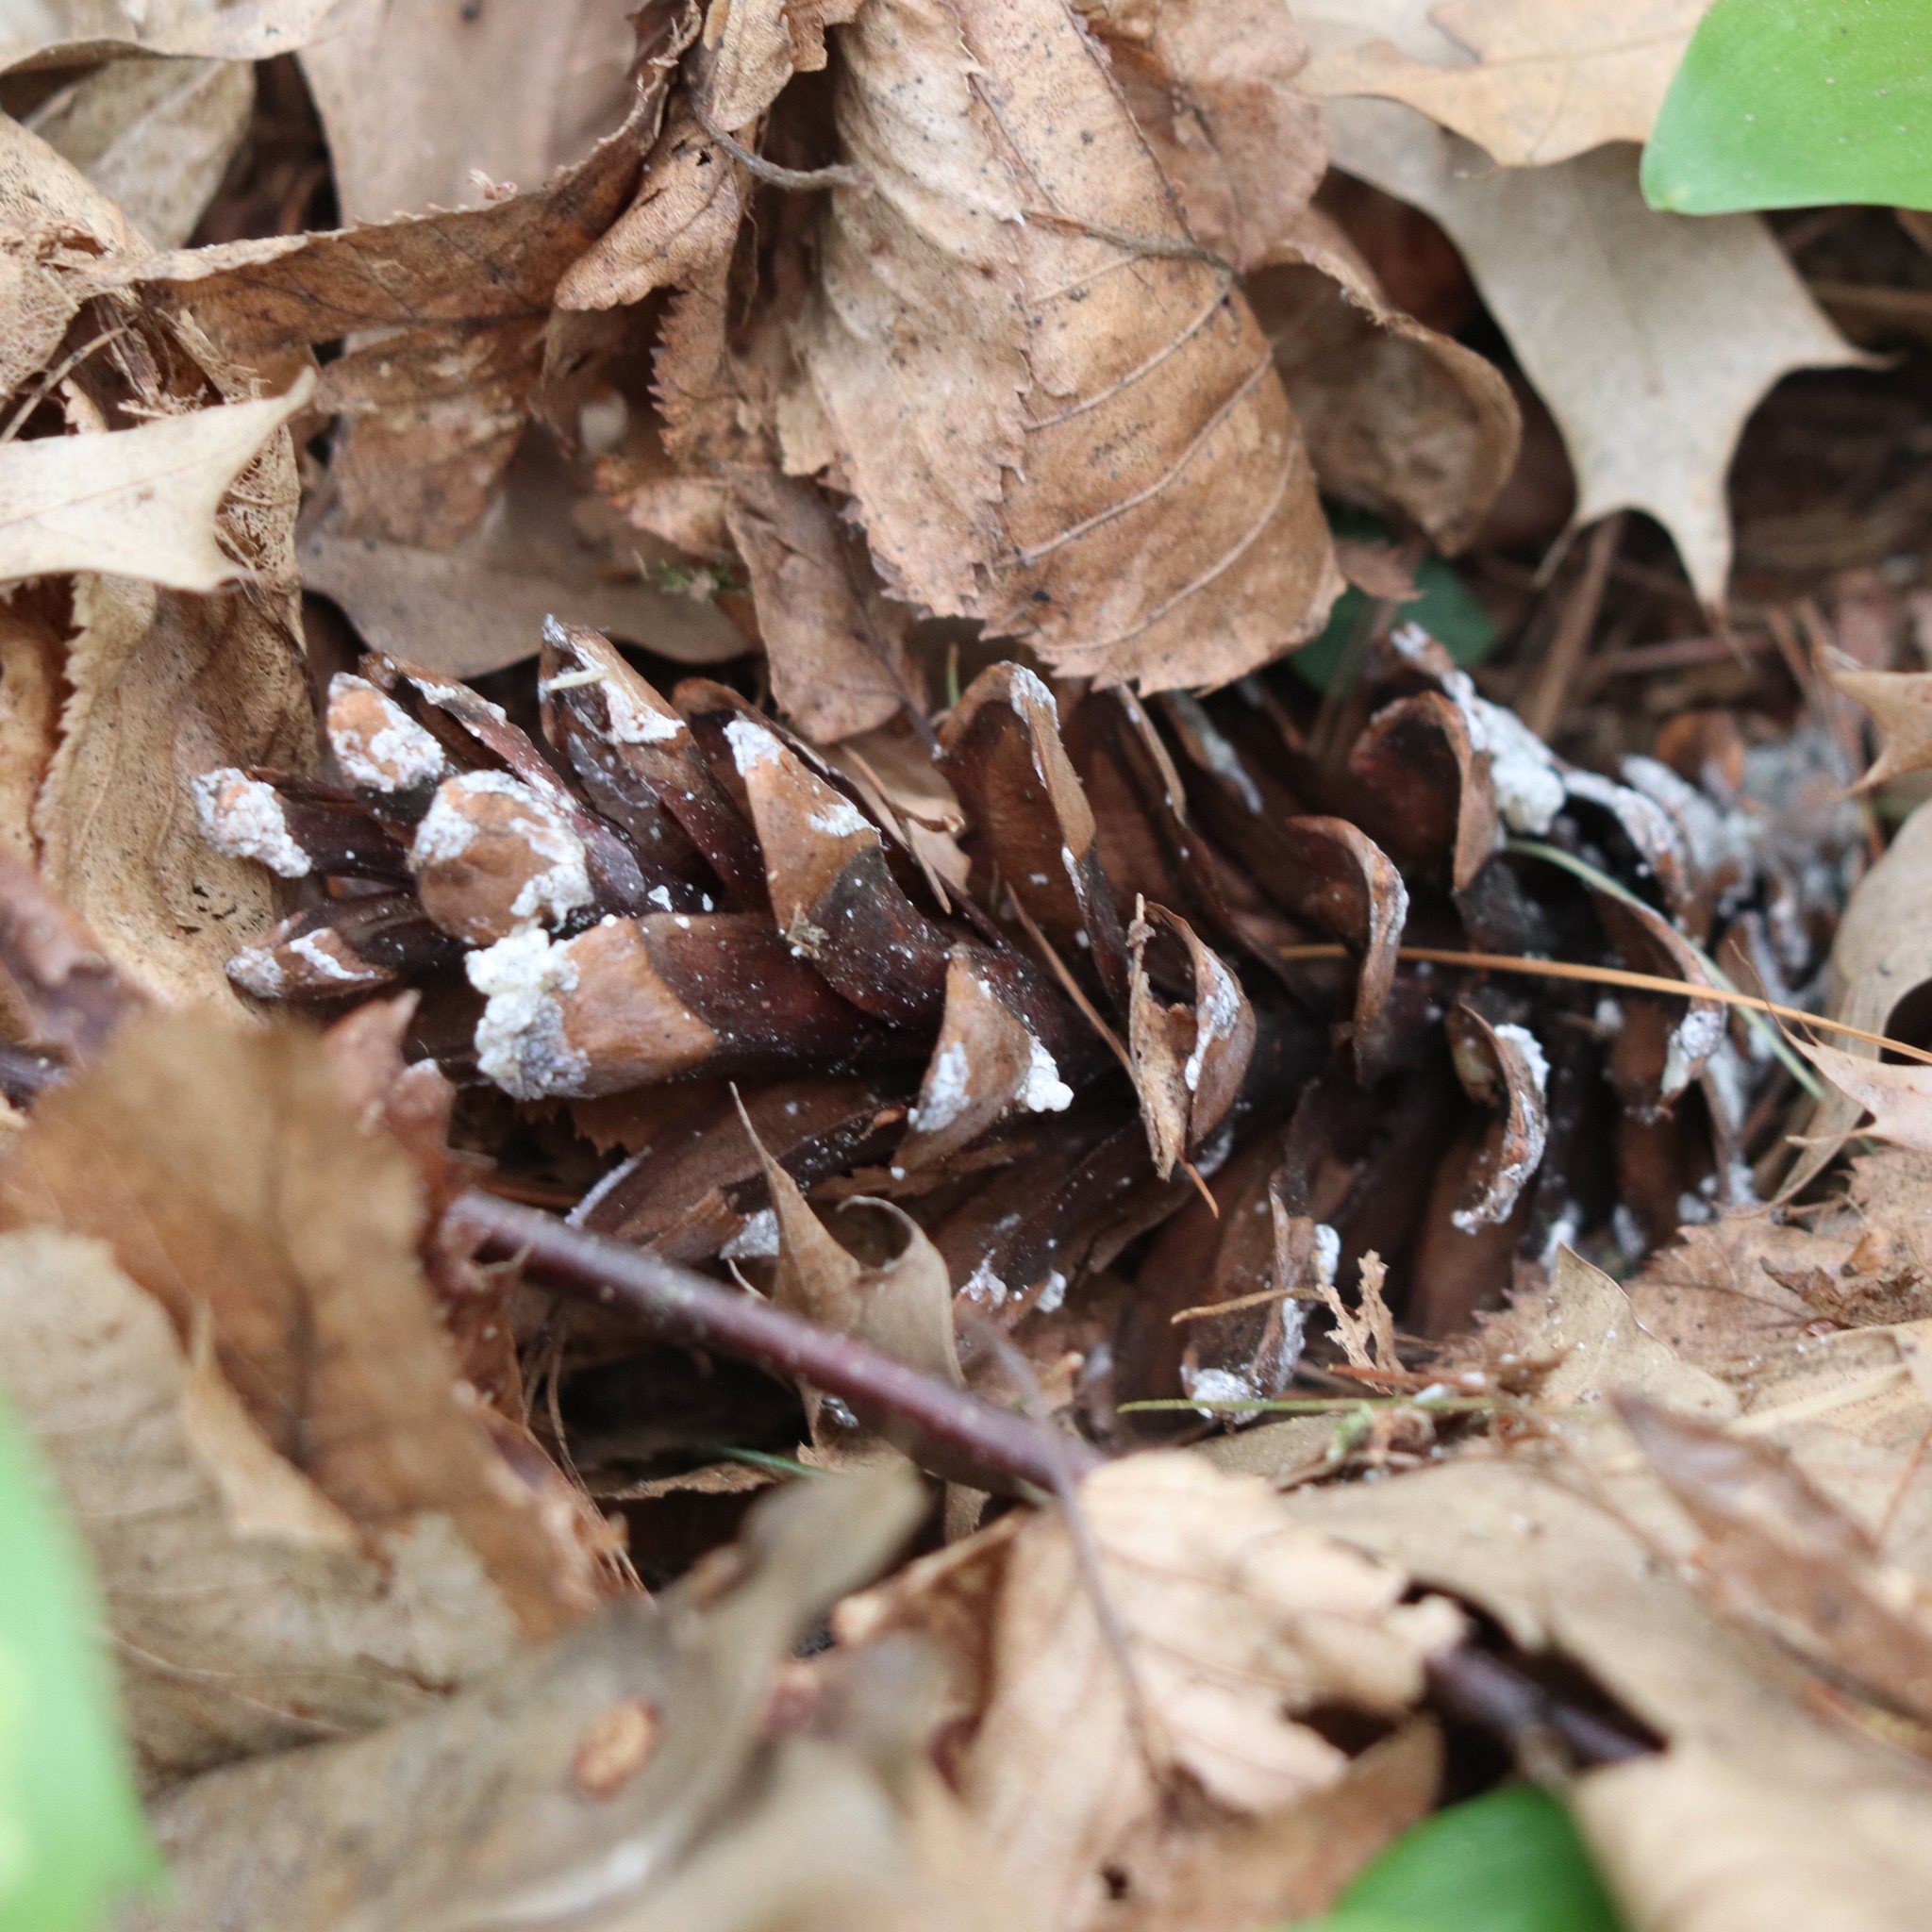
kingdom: Plantae
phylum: Tracheophyta
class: Pinopsida
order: Pinales
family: Pinaceae
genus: Pinus
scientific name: Pinus strobus
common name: Weymouth pine
